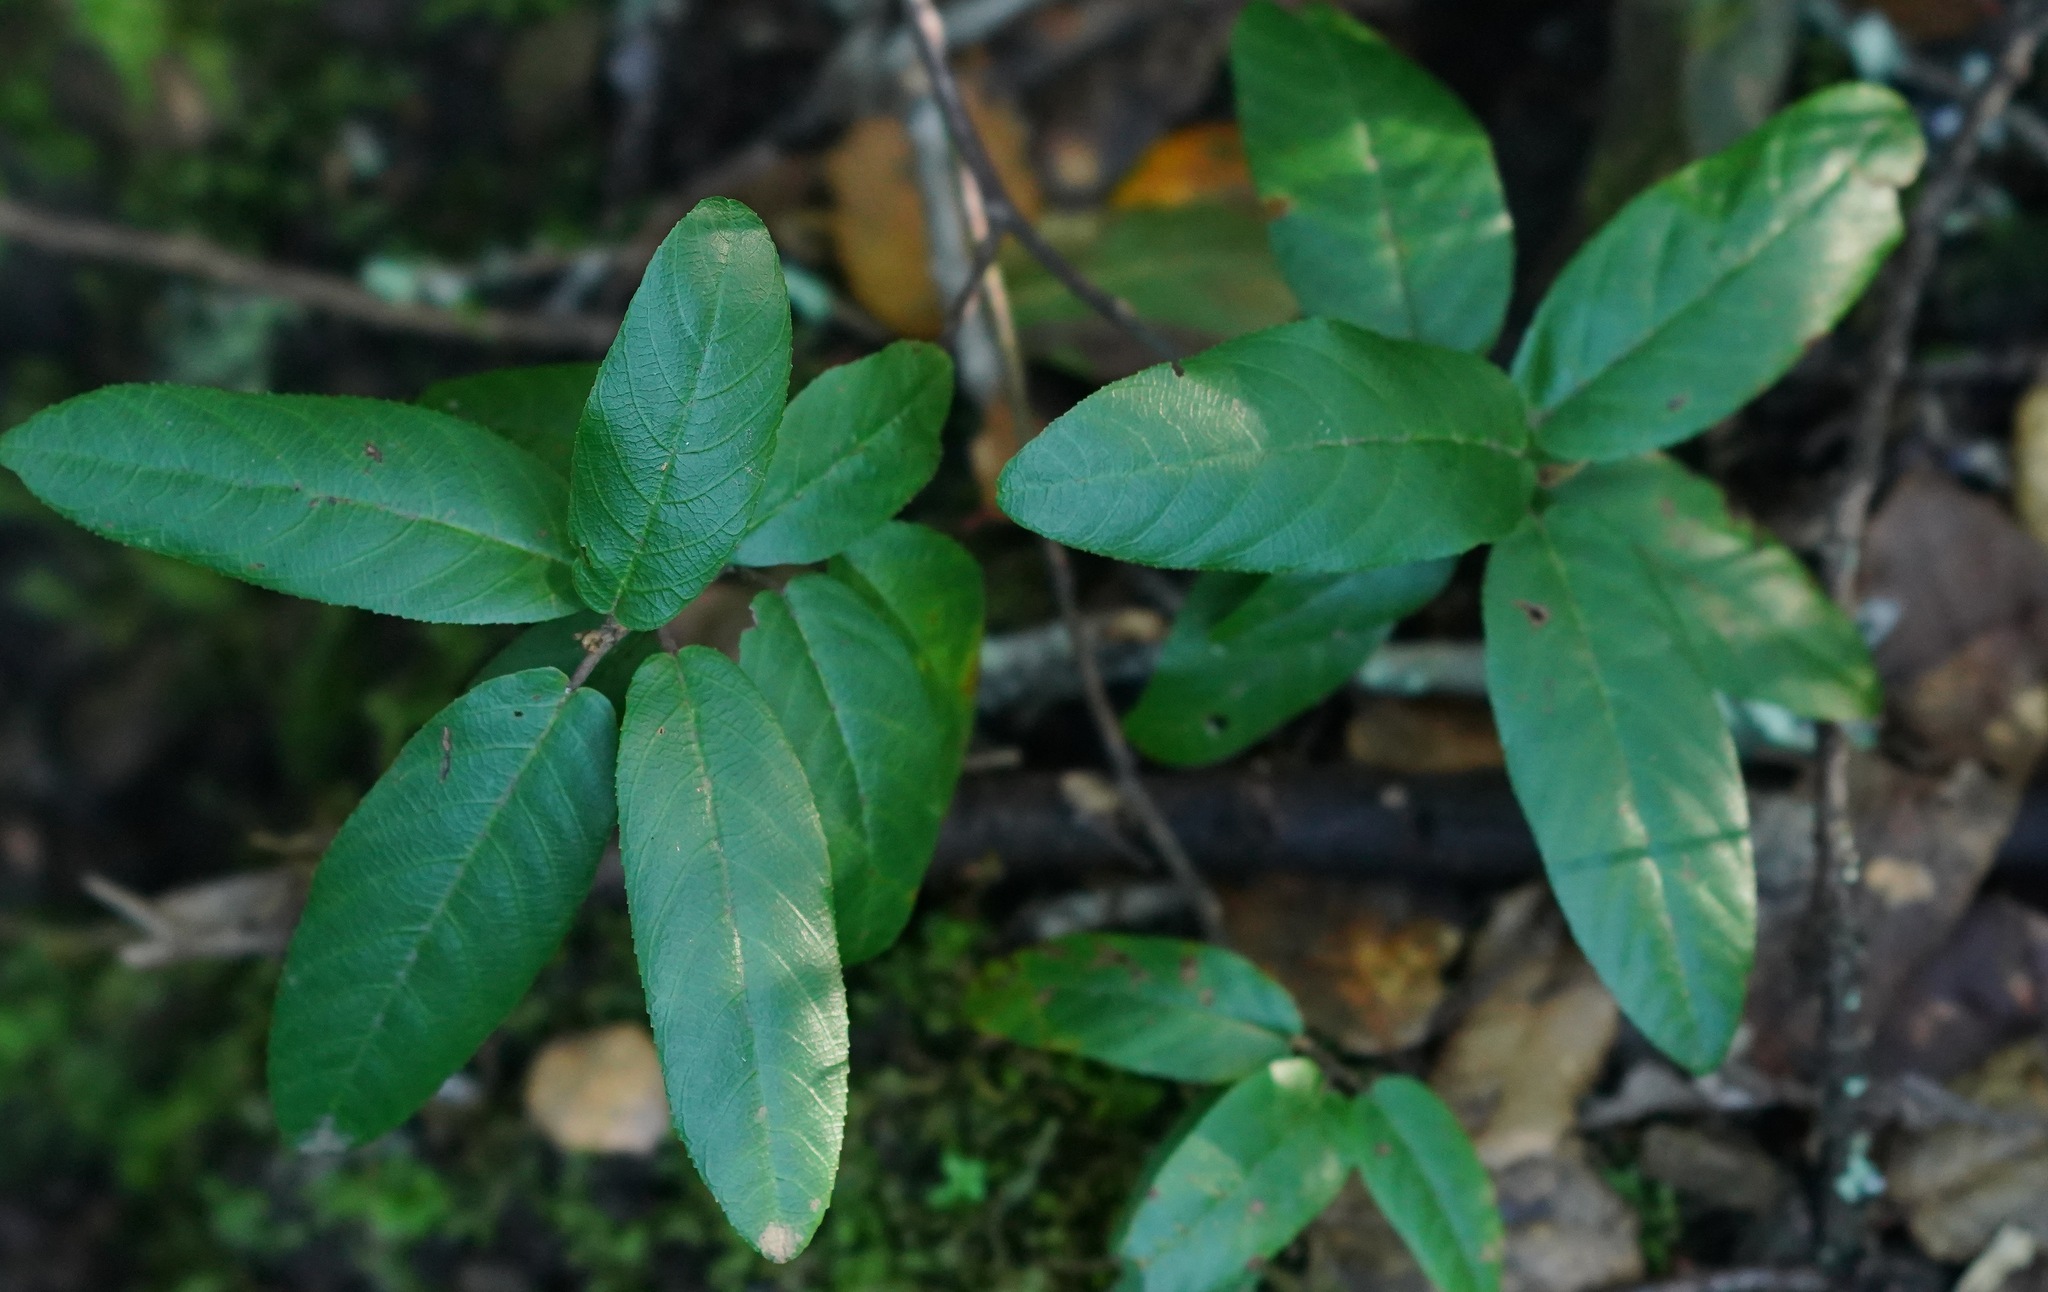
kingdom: Plantae
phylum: Tracheophyta
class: Magnoliopsida
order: Rosales
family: Rhamnaceae
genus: Frangula
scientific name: Frangula californica
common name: California buckthorn
